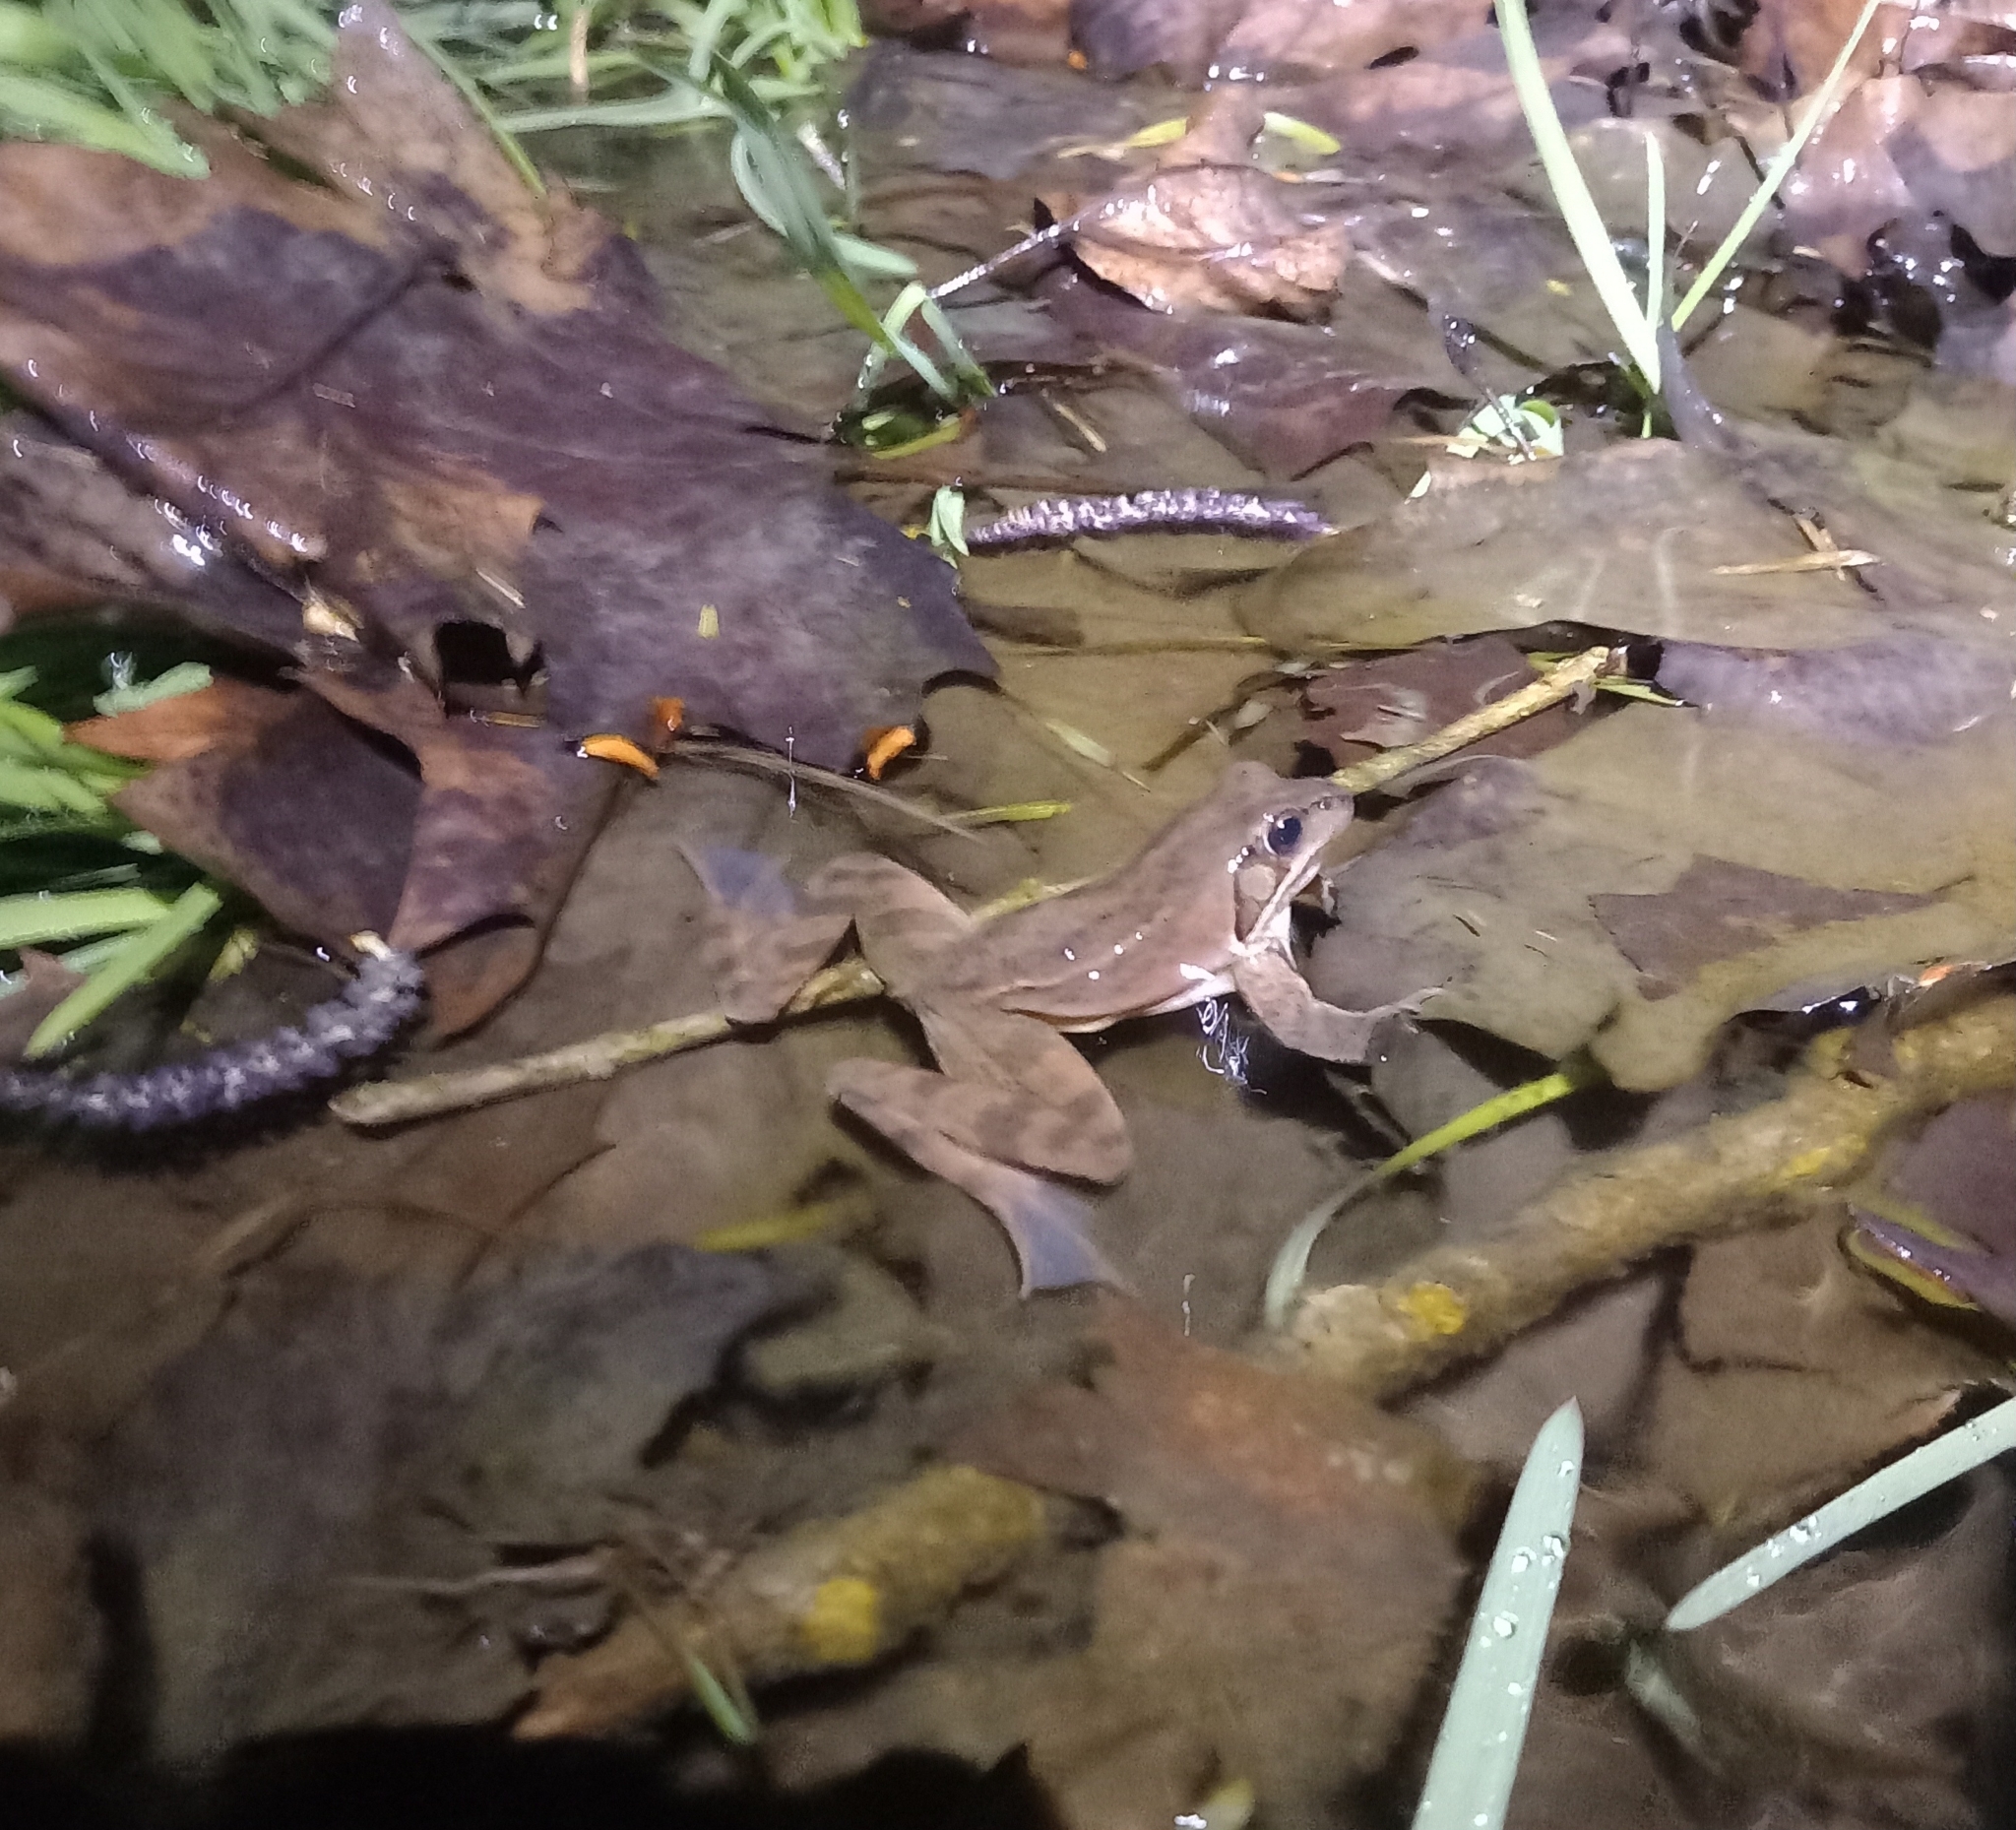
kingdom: Animalia
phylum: Chordata
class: Amphibia
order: Anura
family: Ranidae
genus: Rana
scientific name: Rana dalmatina
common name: Agile frog
